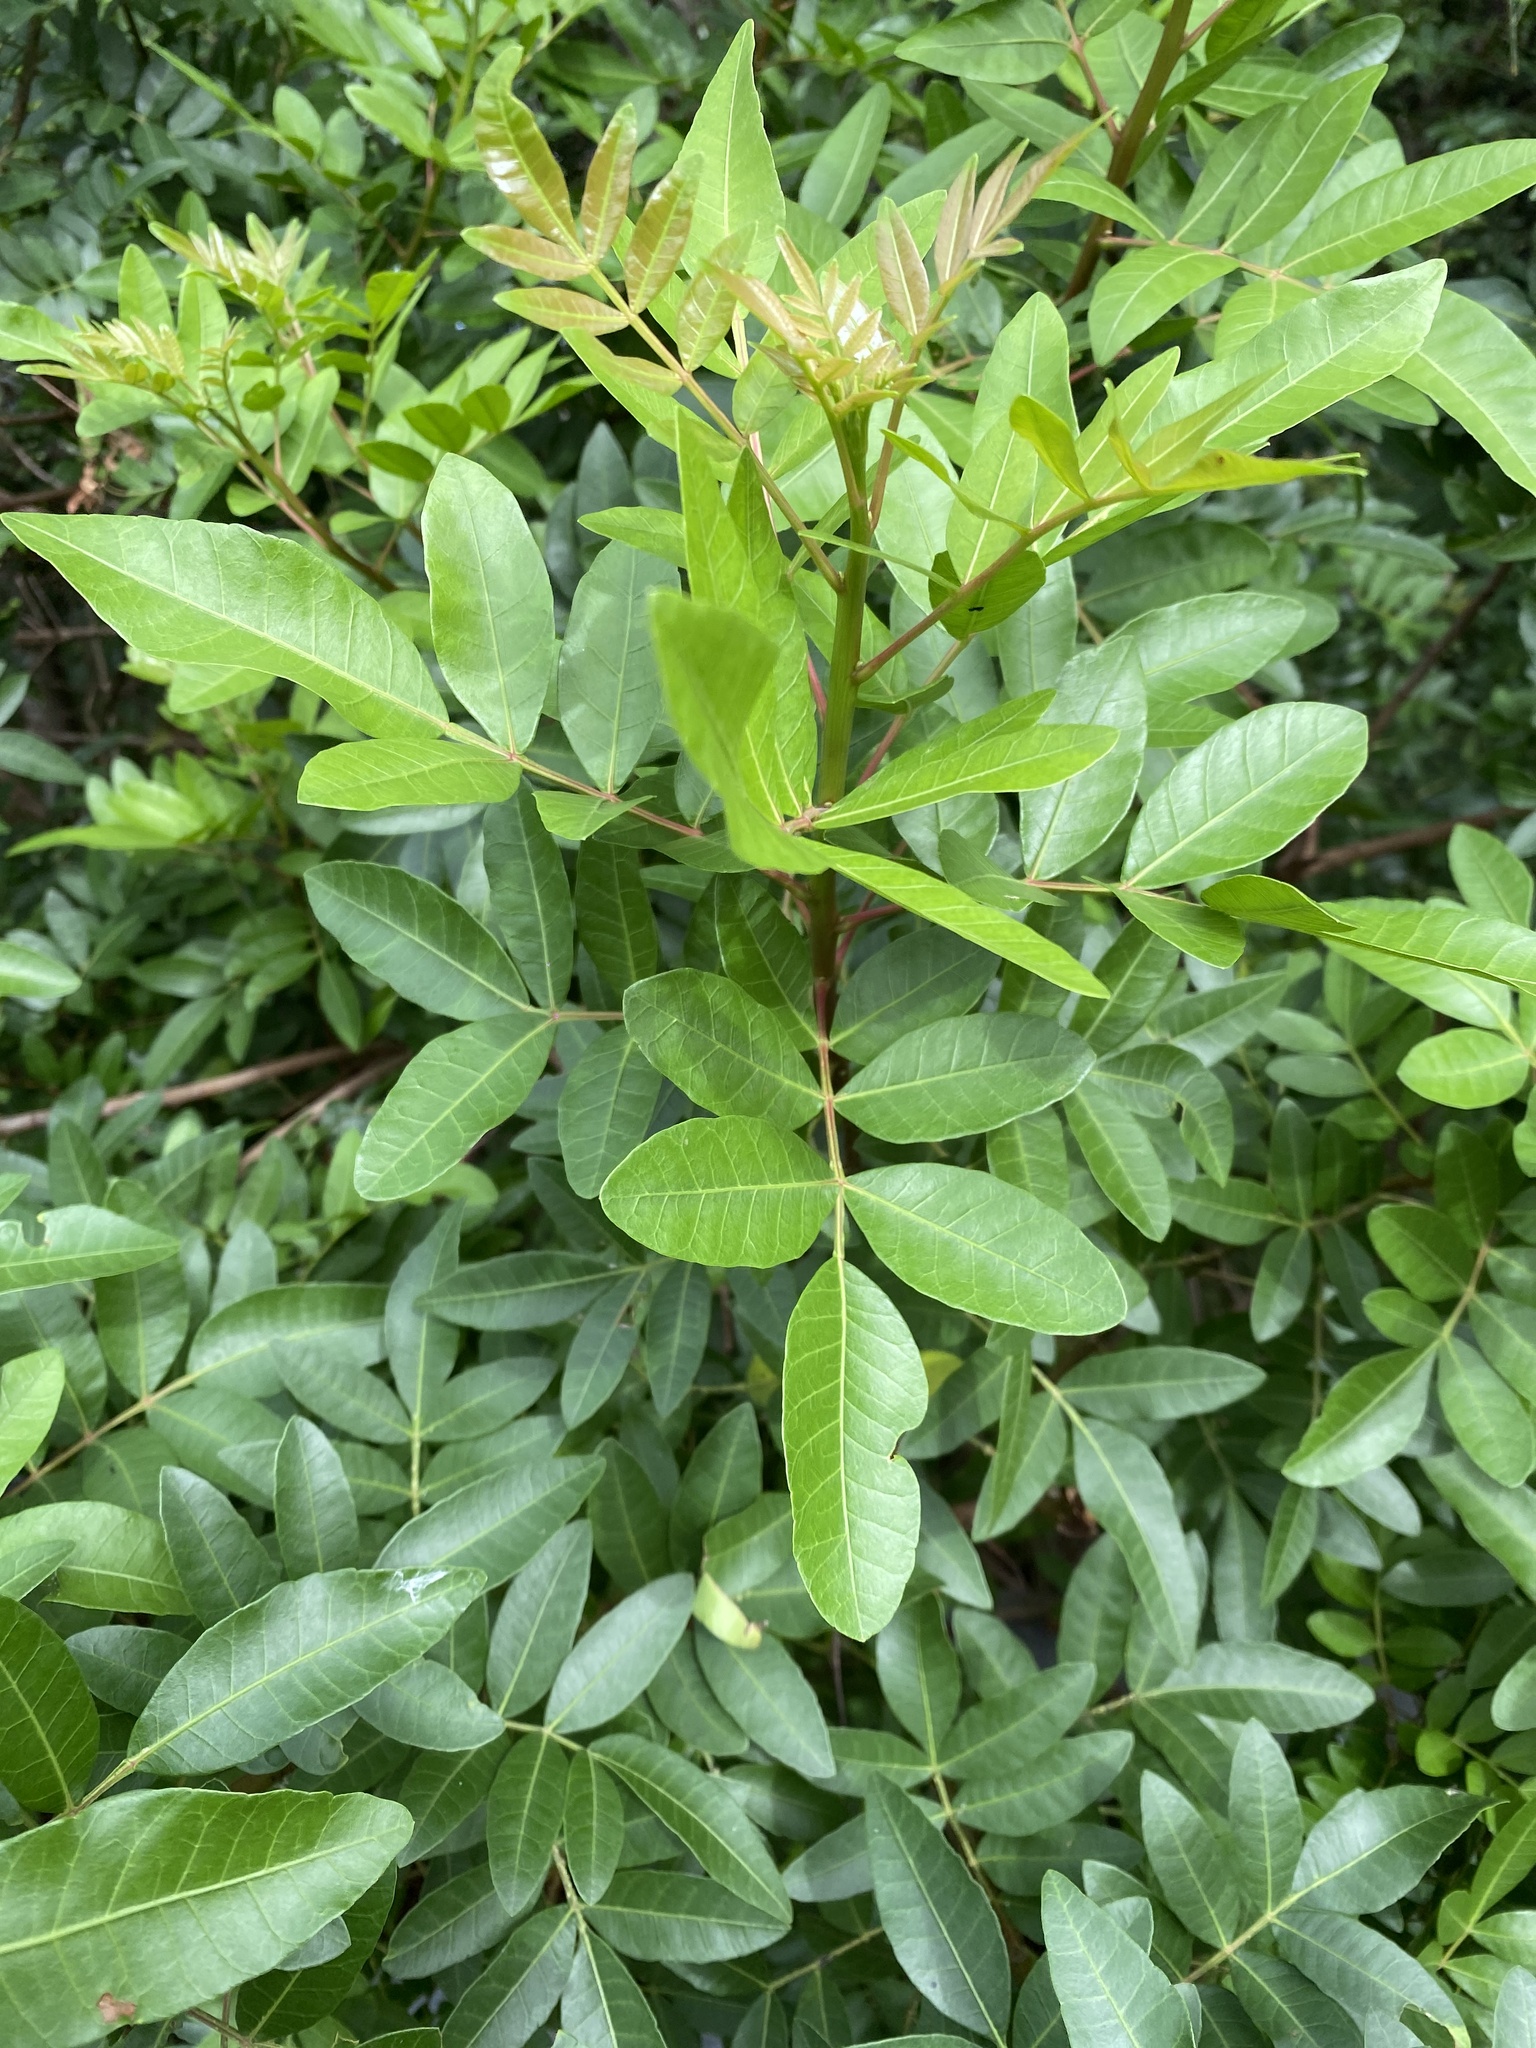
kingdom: Plantae
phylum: Tracheophyta
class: Magnoliopsida
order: Sapindales
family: Anacardiaceae
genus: Schinus
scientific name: Schinus terebinthifolia
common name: Brazilian peppertree
